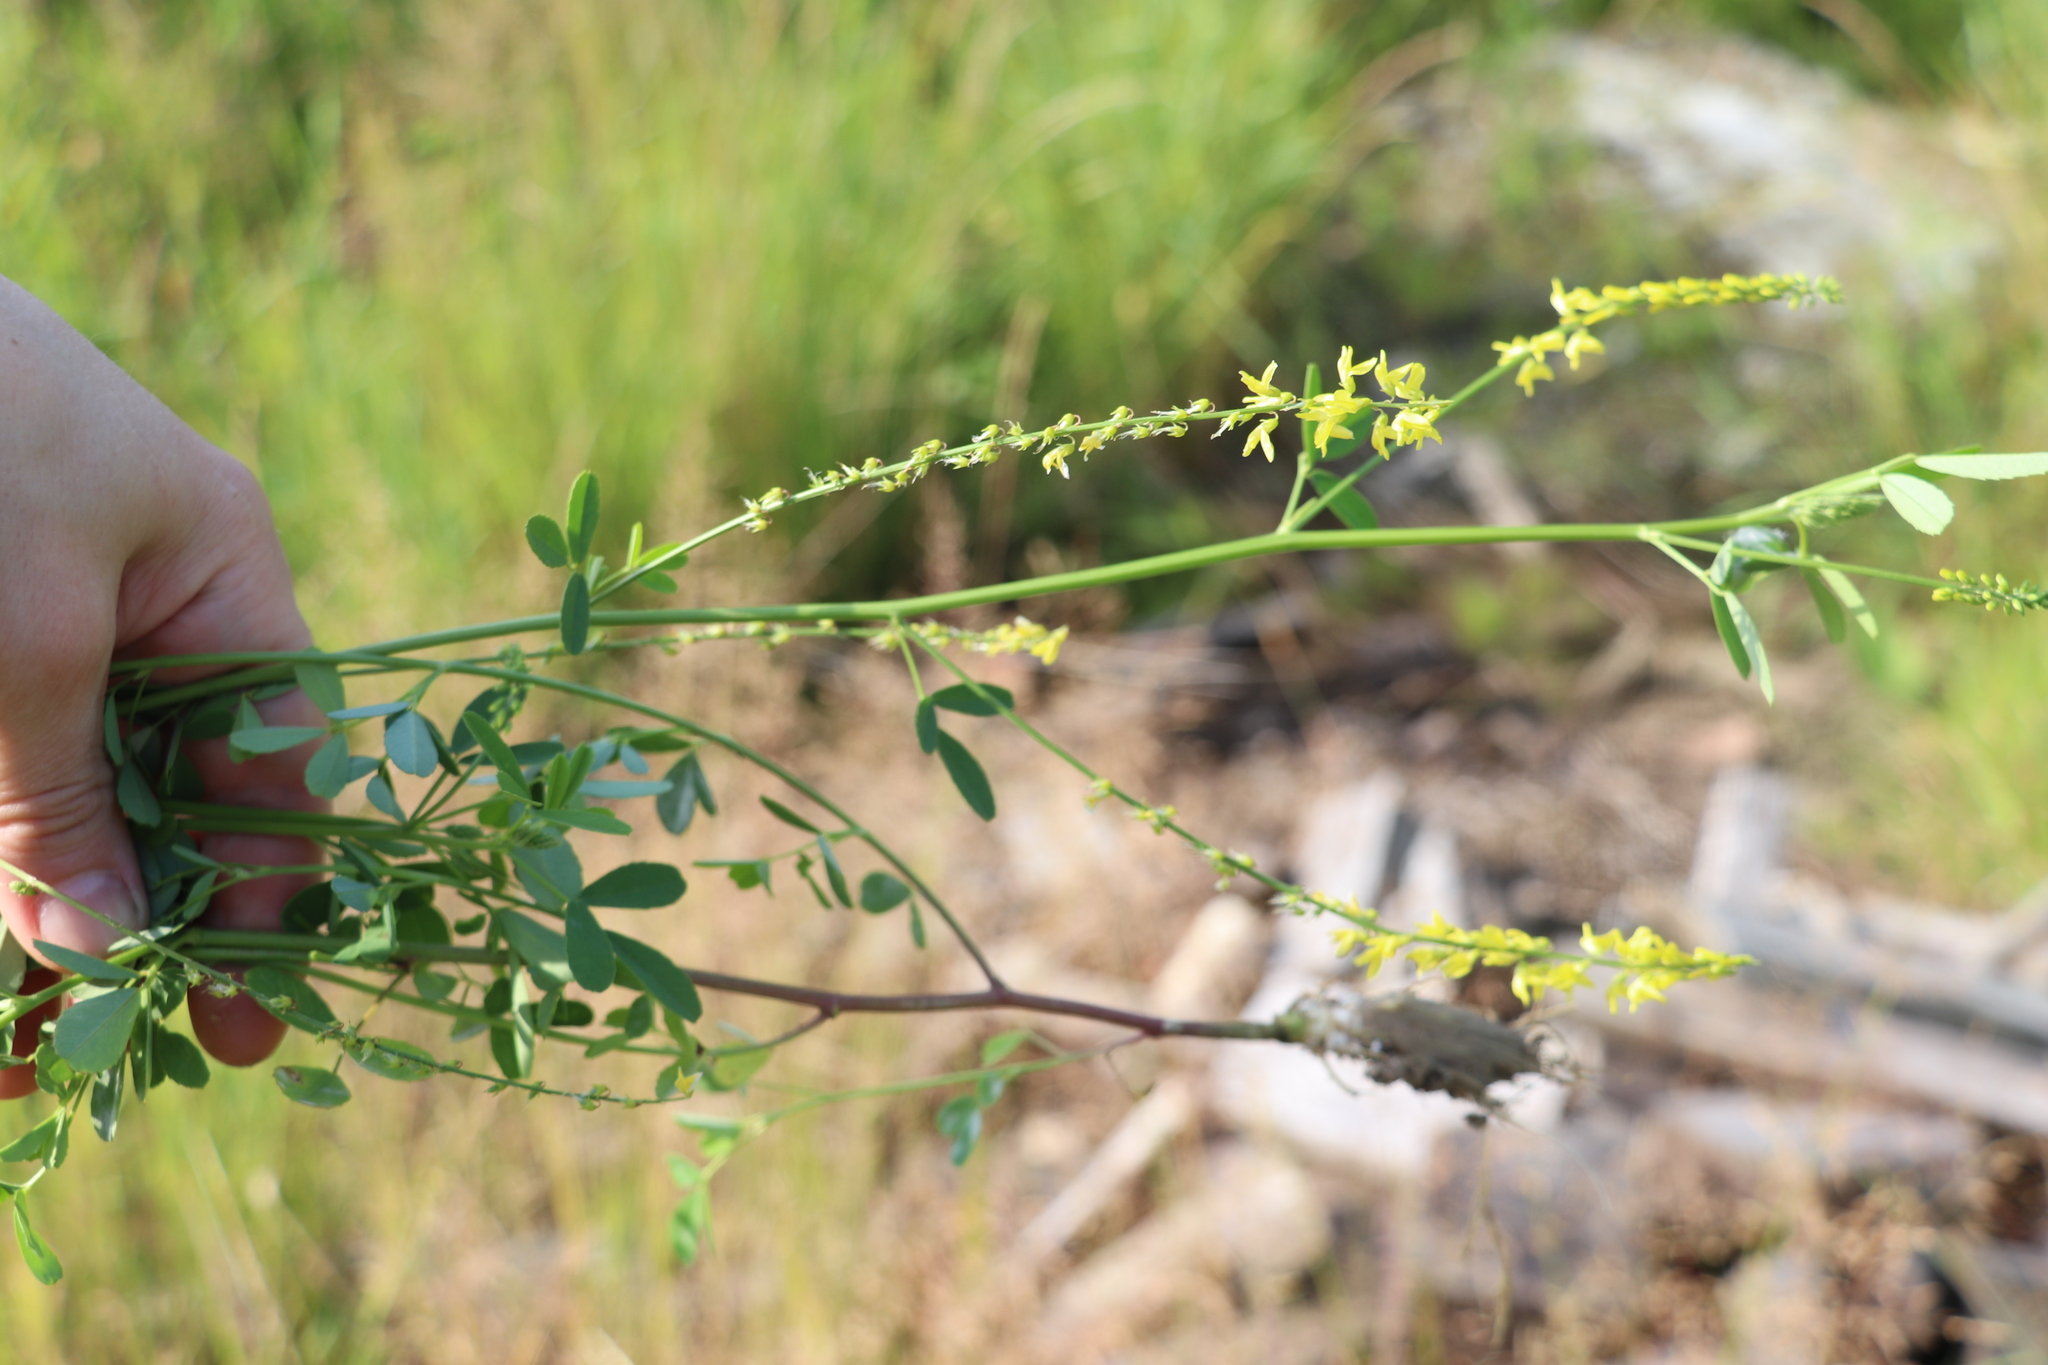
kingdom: Plantae
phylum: Tracheophyta
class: Magnoliopsida
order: Fabales
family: Fabaceae
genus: Melilotus
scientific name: Melilotus officinalis
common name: Sweetclover
